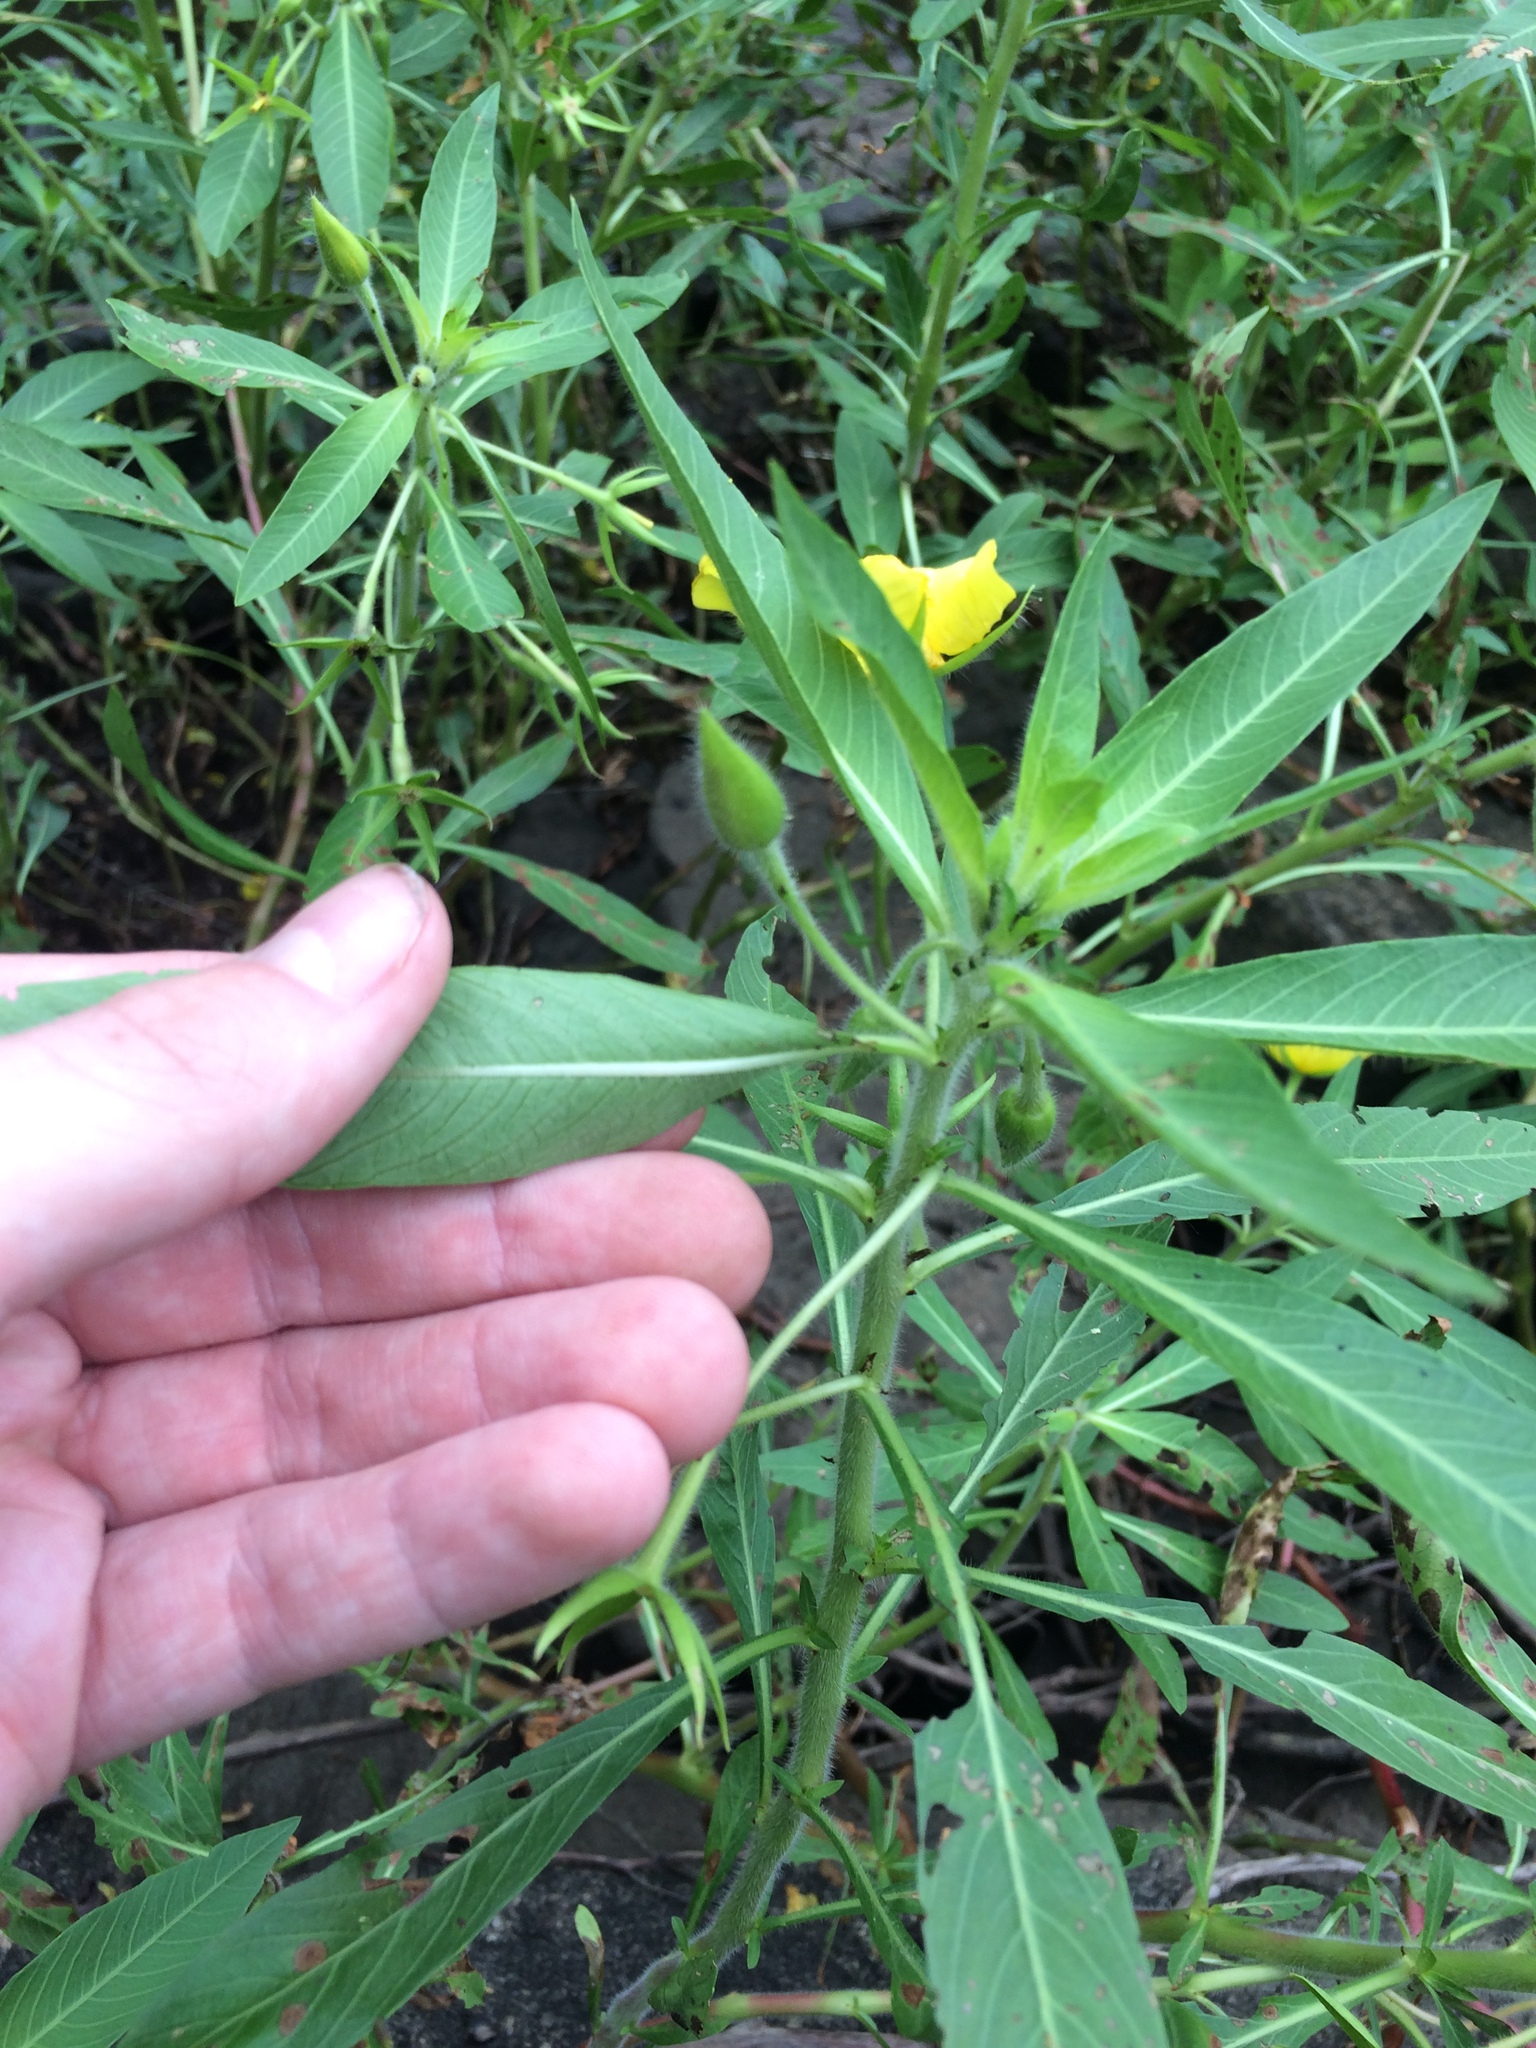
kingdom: Plantae
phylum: Tracheophyta
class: Magnoliopsida
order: Myrtales
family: Onagraceae
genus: Ludwigia
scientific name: Ludwigia hexapetala
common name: Water-primrose
